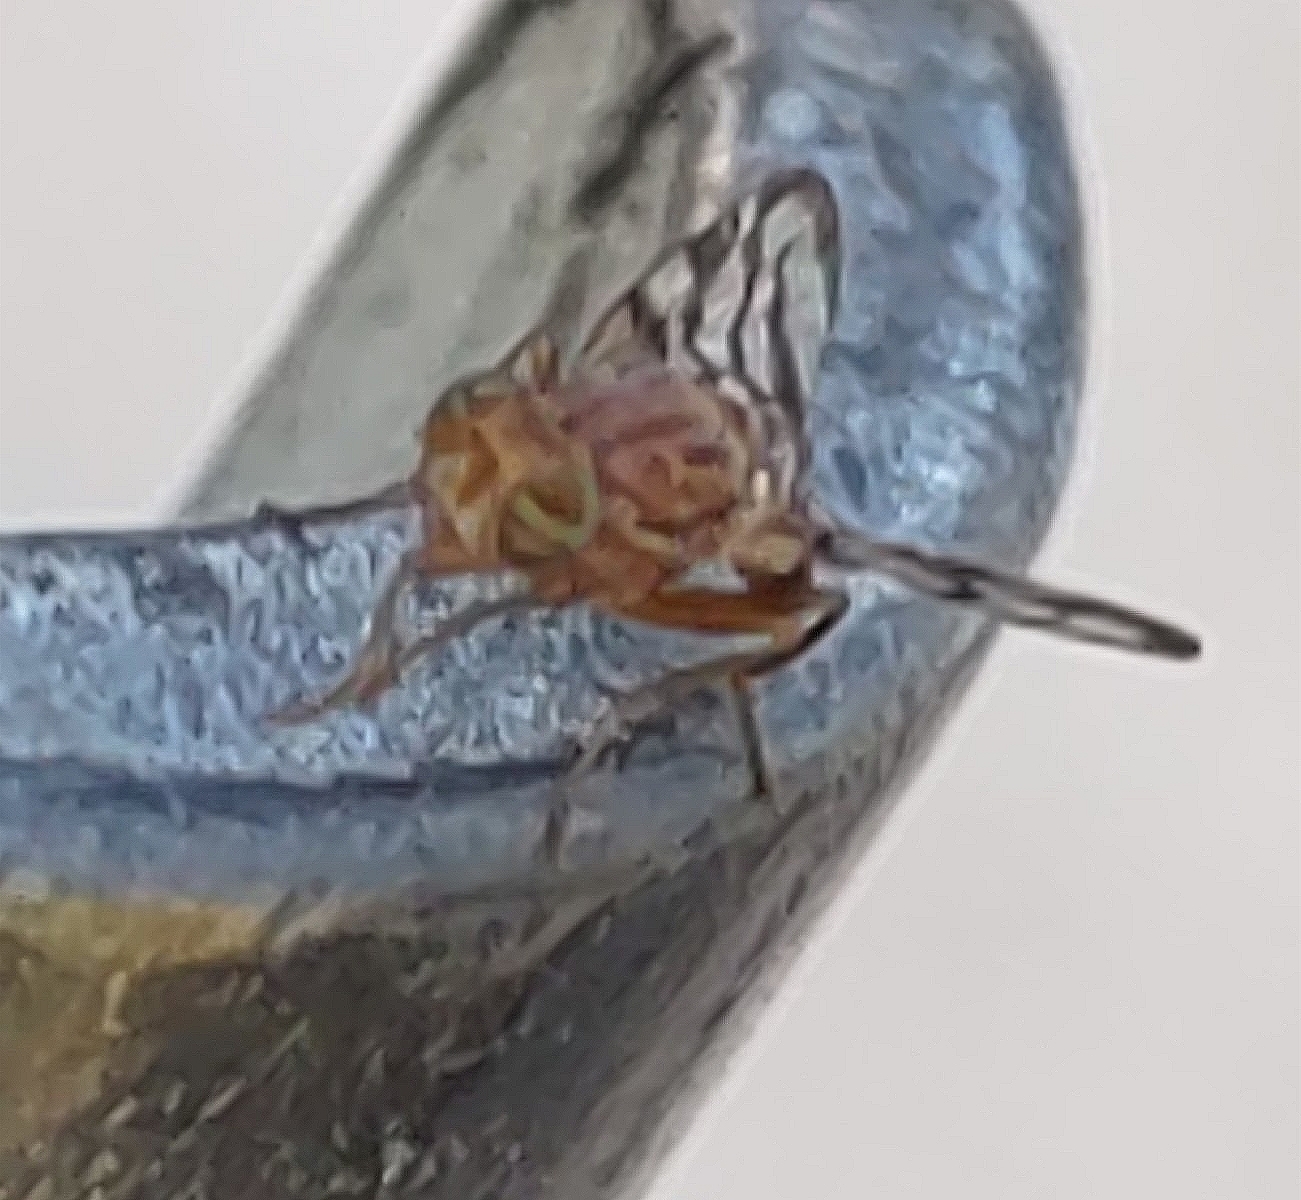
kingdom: Animalia
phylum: Arthropoda
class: Insecta
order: Diptera
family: Tephritidae
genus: Euphranta
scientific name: Euphranta canadensis
